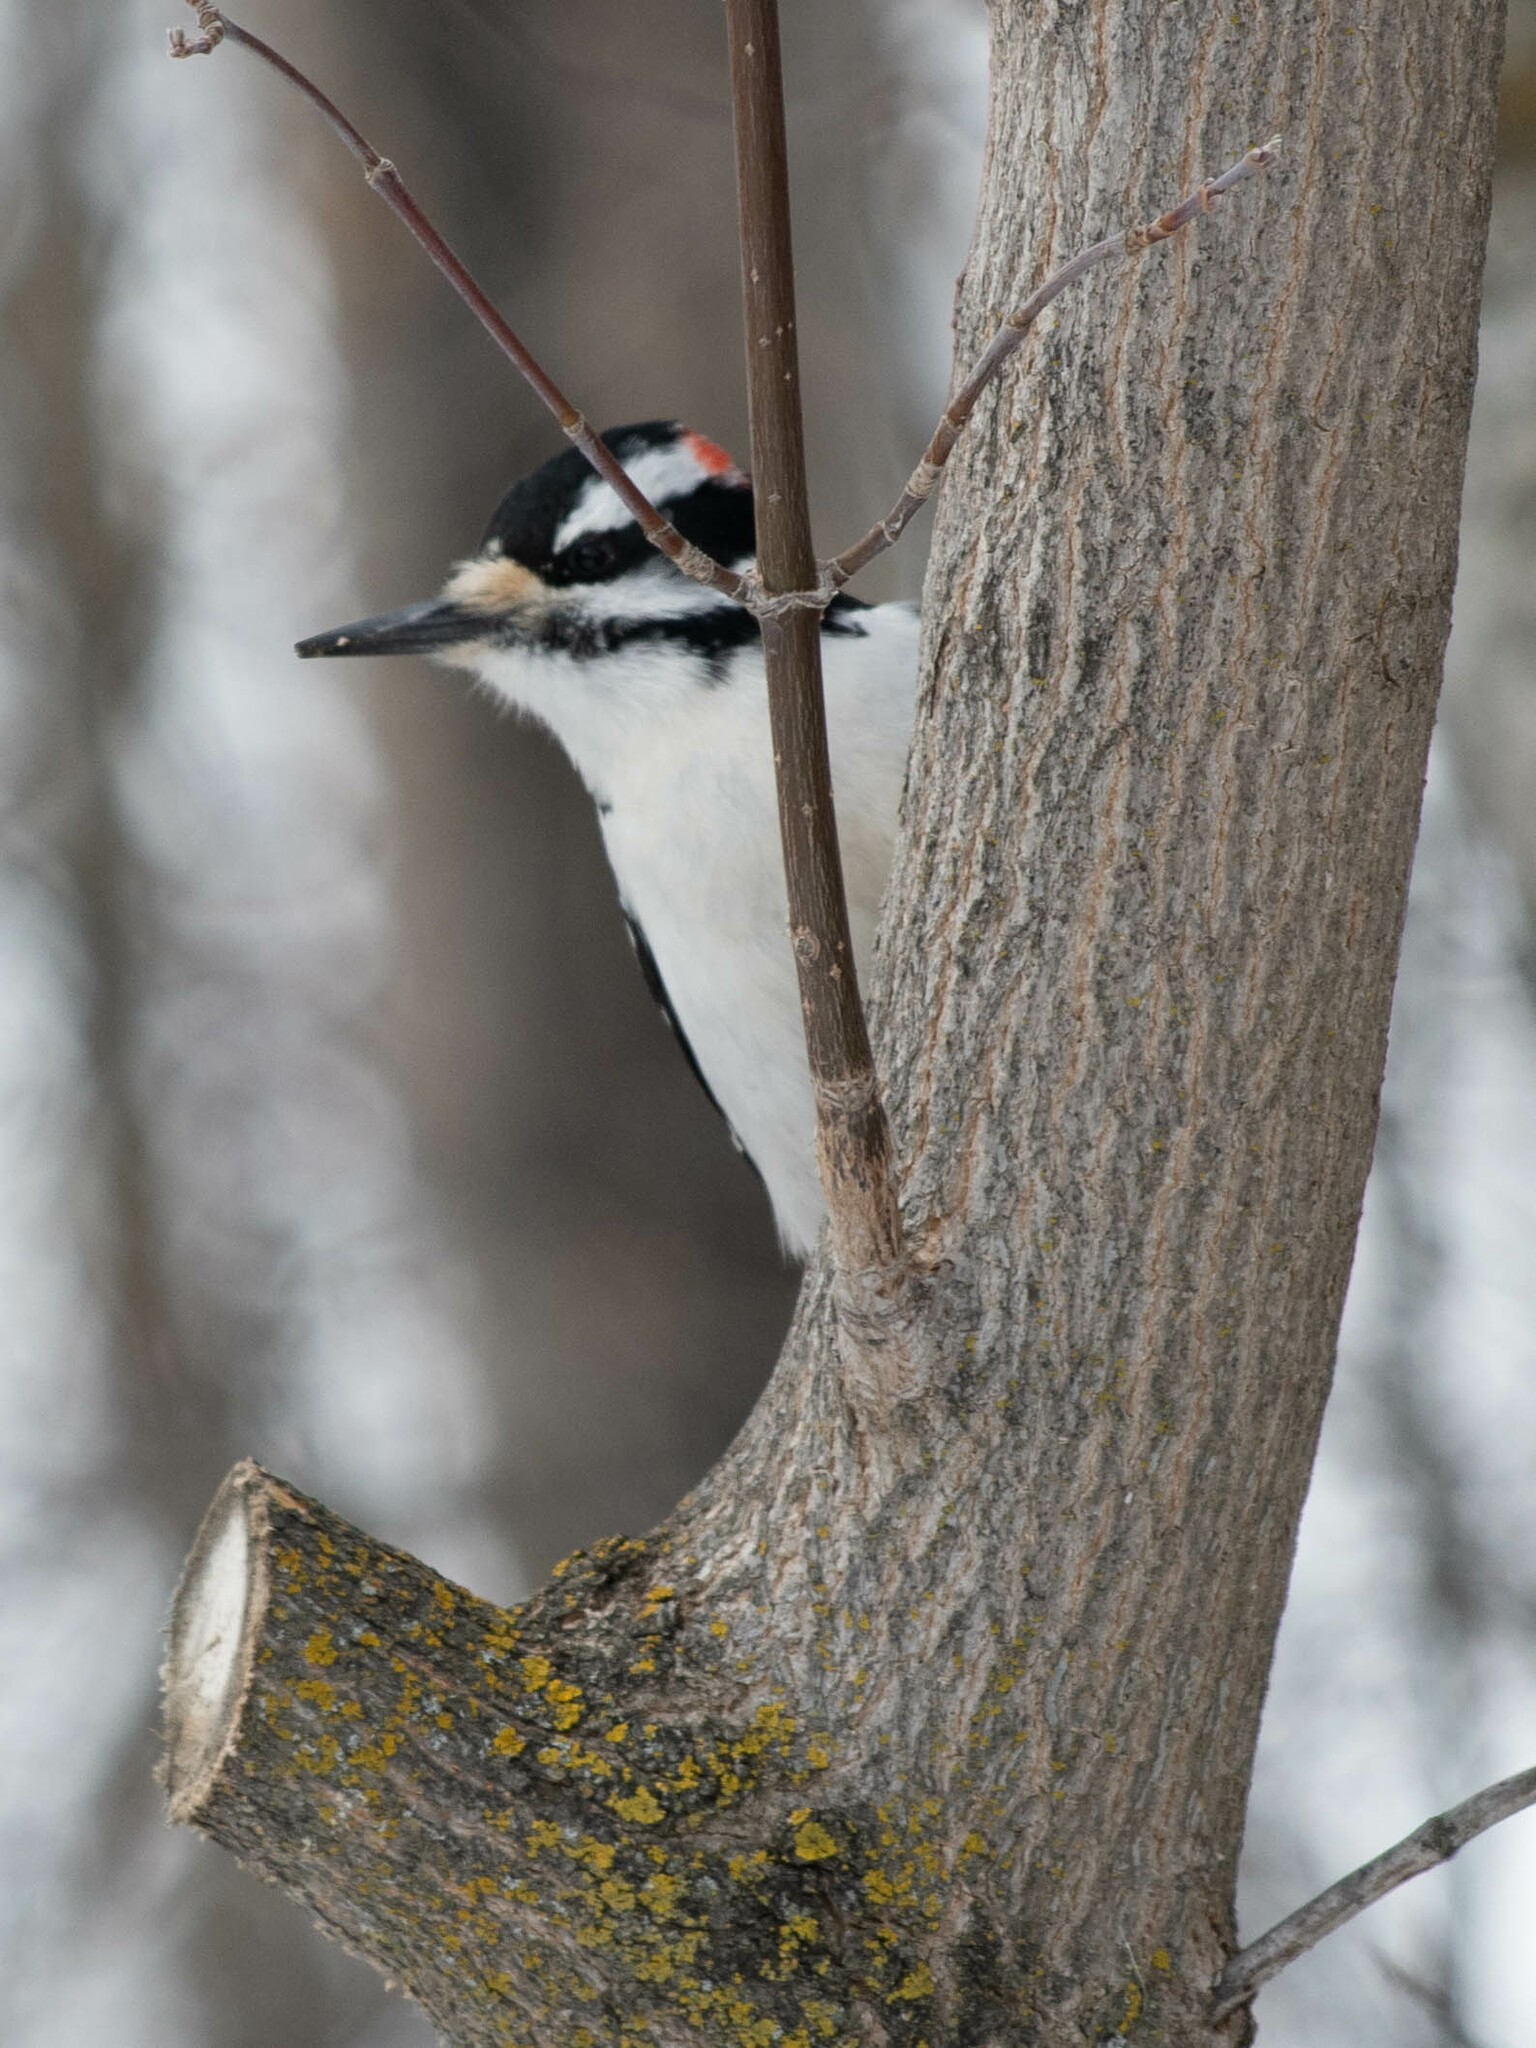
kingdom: Animalia
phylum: Chordata
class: Aves
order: Piciformes
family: Picidae
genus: Leuconotopicus
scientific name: Leuconotopicus villosus
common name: Hairy woodpecker
